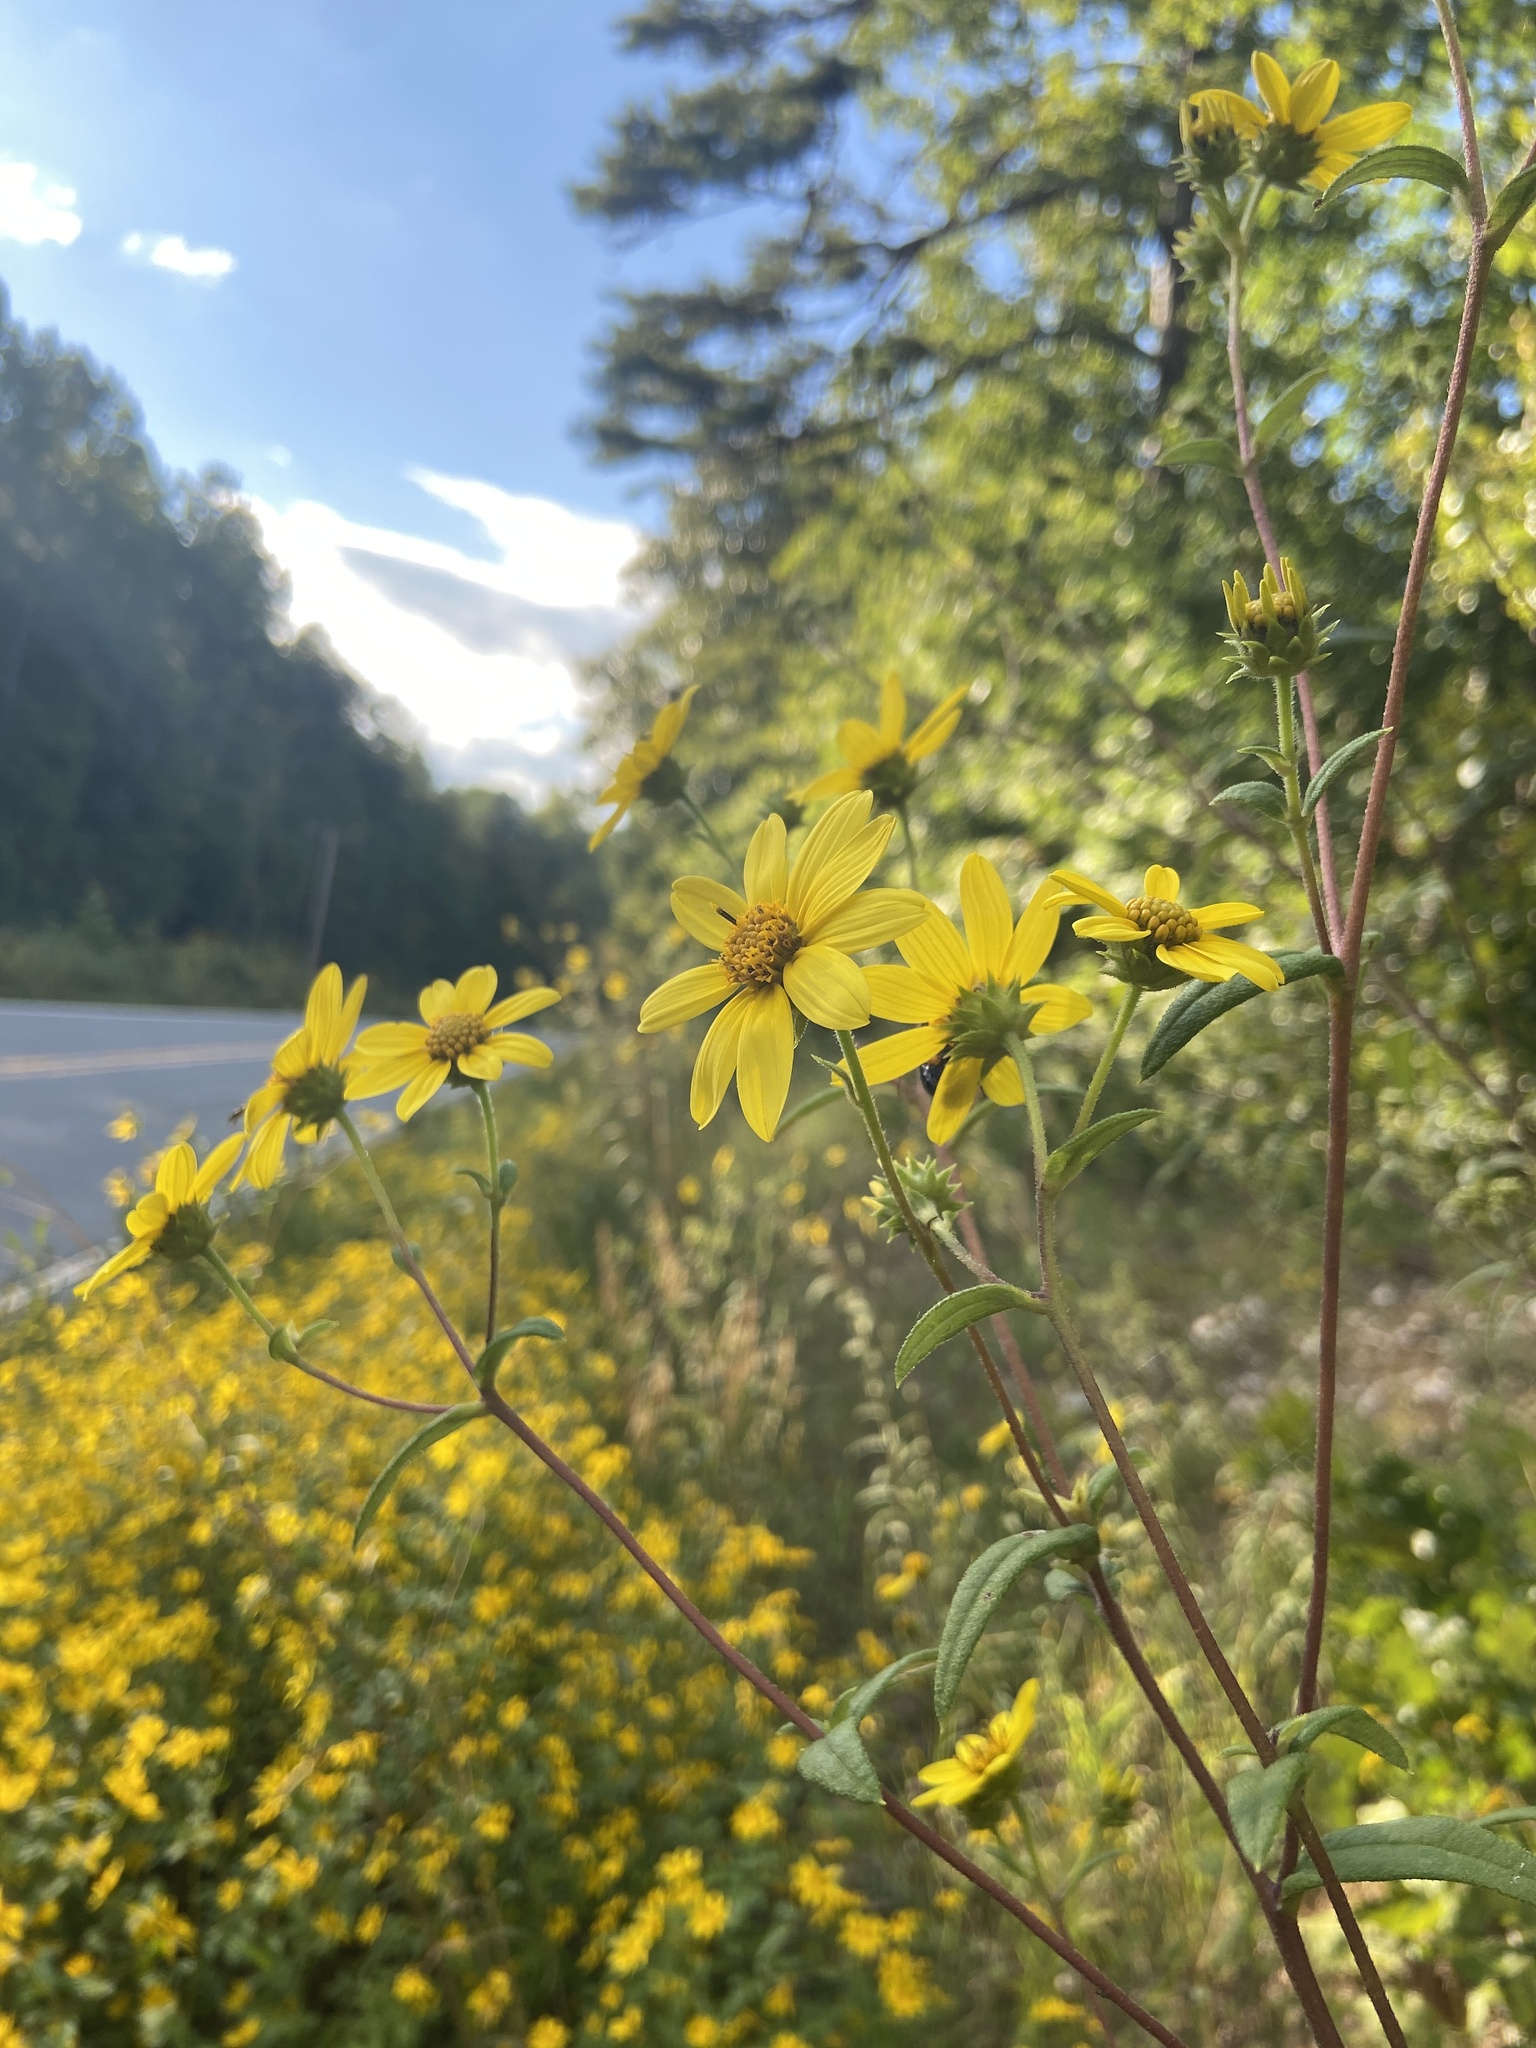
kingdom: Plantae
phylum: Tracheophyta
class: Magnoliopsida
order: Asterales
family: Asteraceae
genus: Helianthus
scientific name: Helianthus schweinitzii
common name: Schweinitz's sunflower
